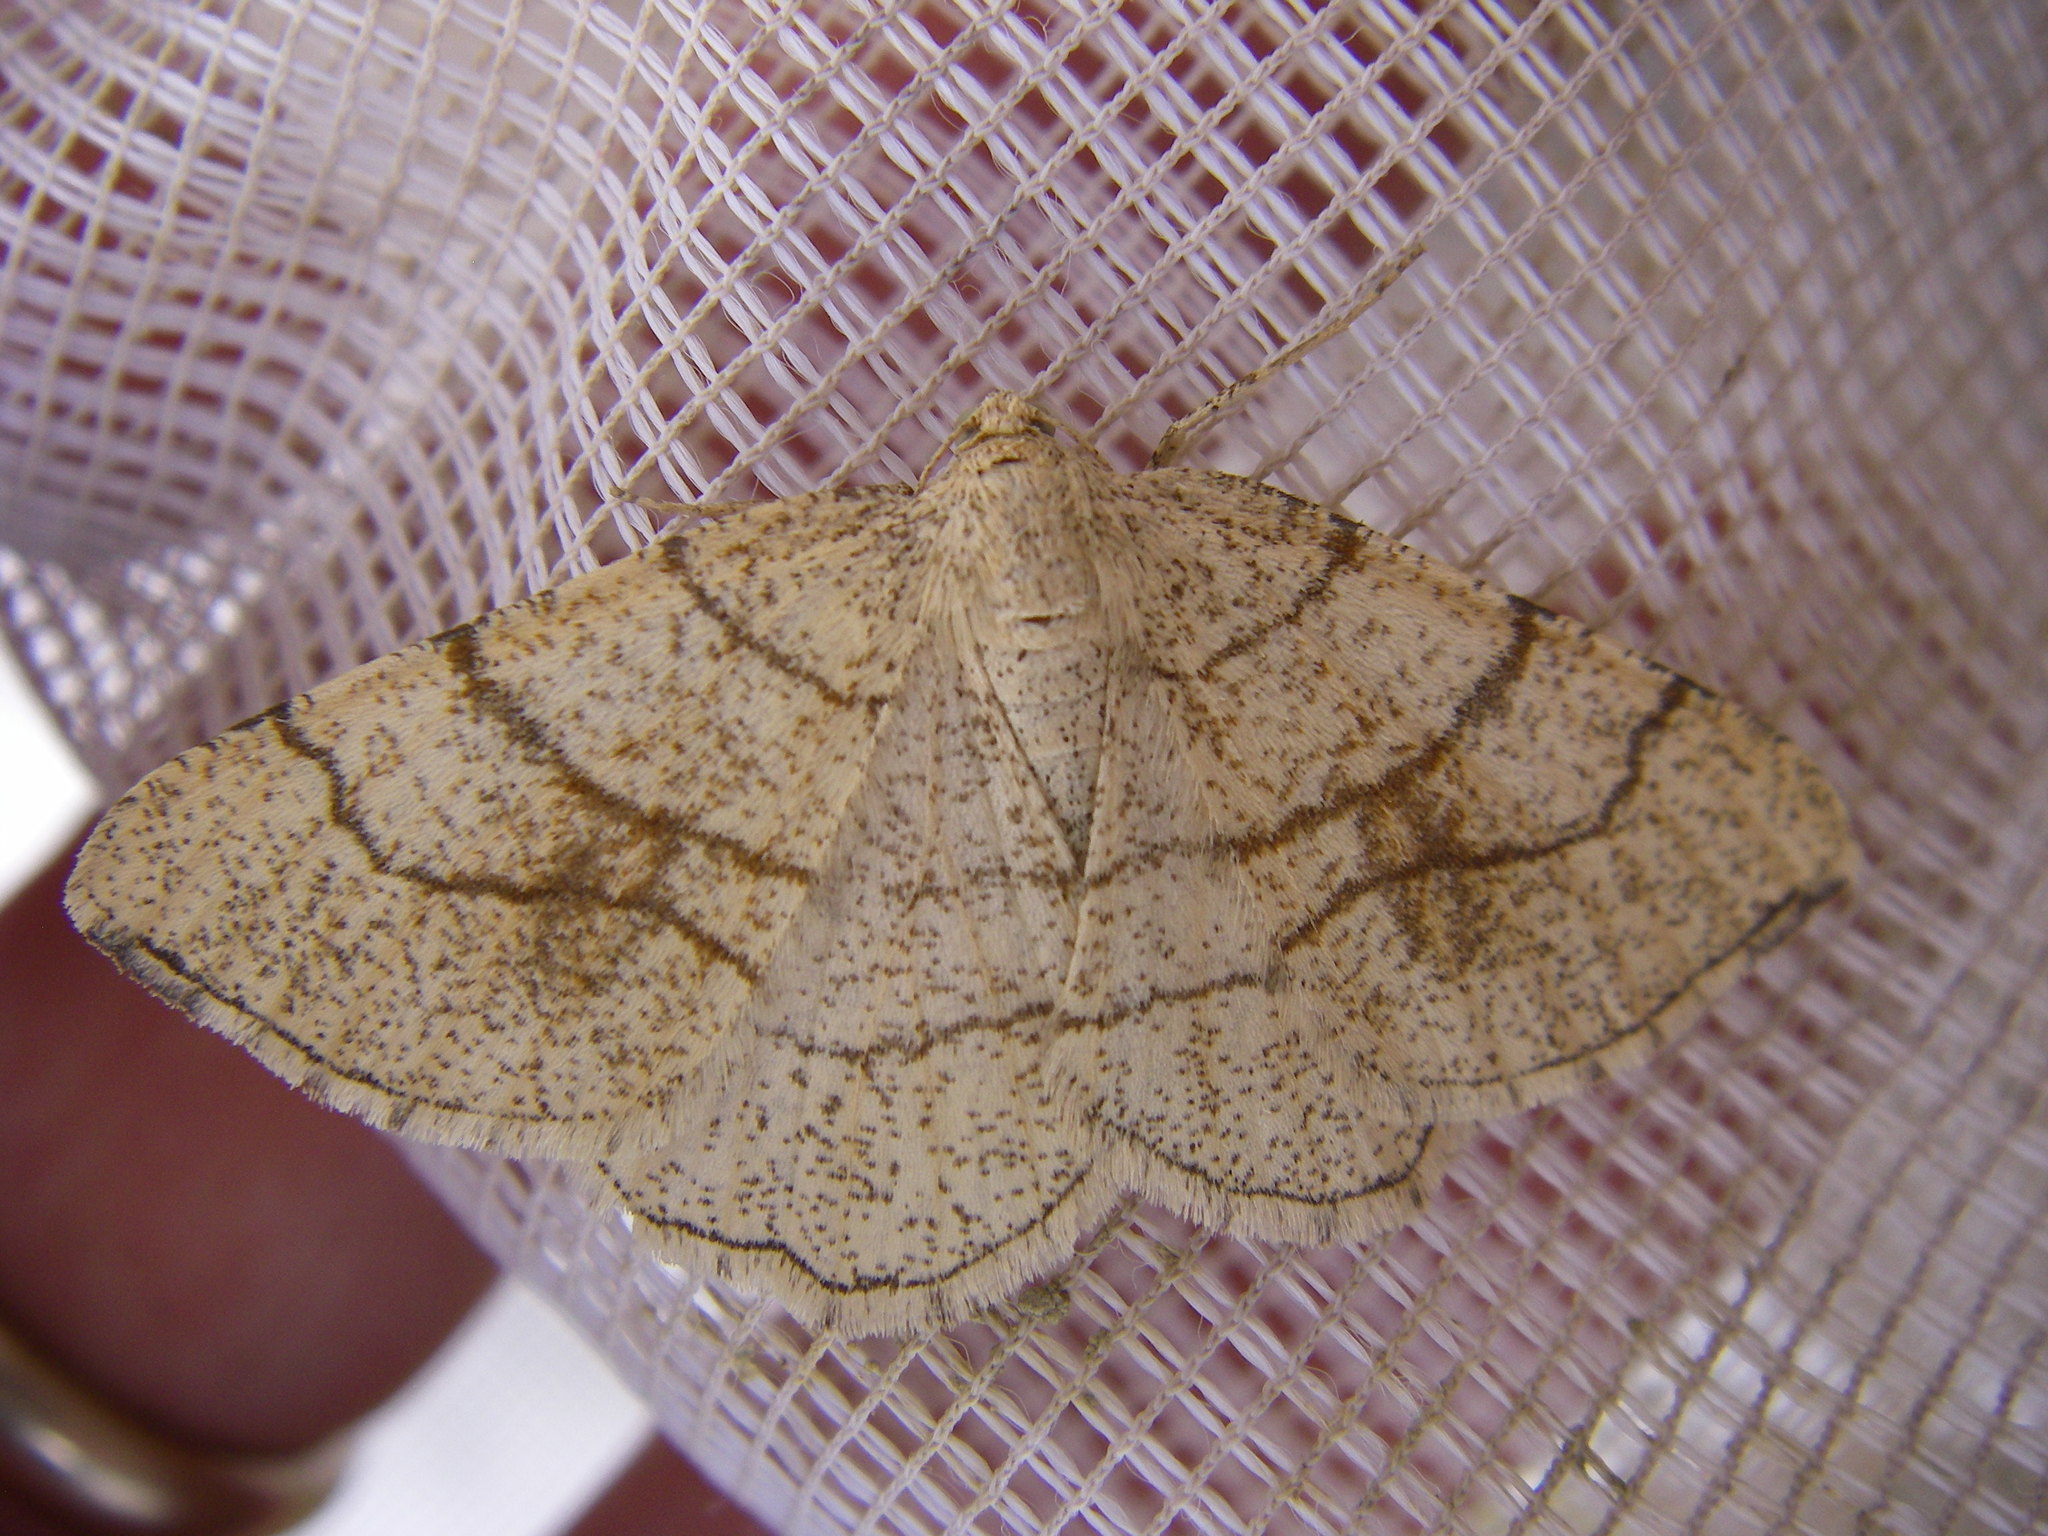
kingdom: Animalia
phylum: Arthropoda
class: Insecta
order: Lepidoptera
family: Geometridae
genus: Adactylotis
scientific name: Adactylotis contaminaria
